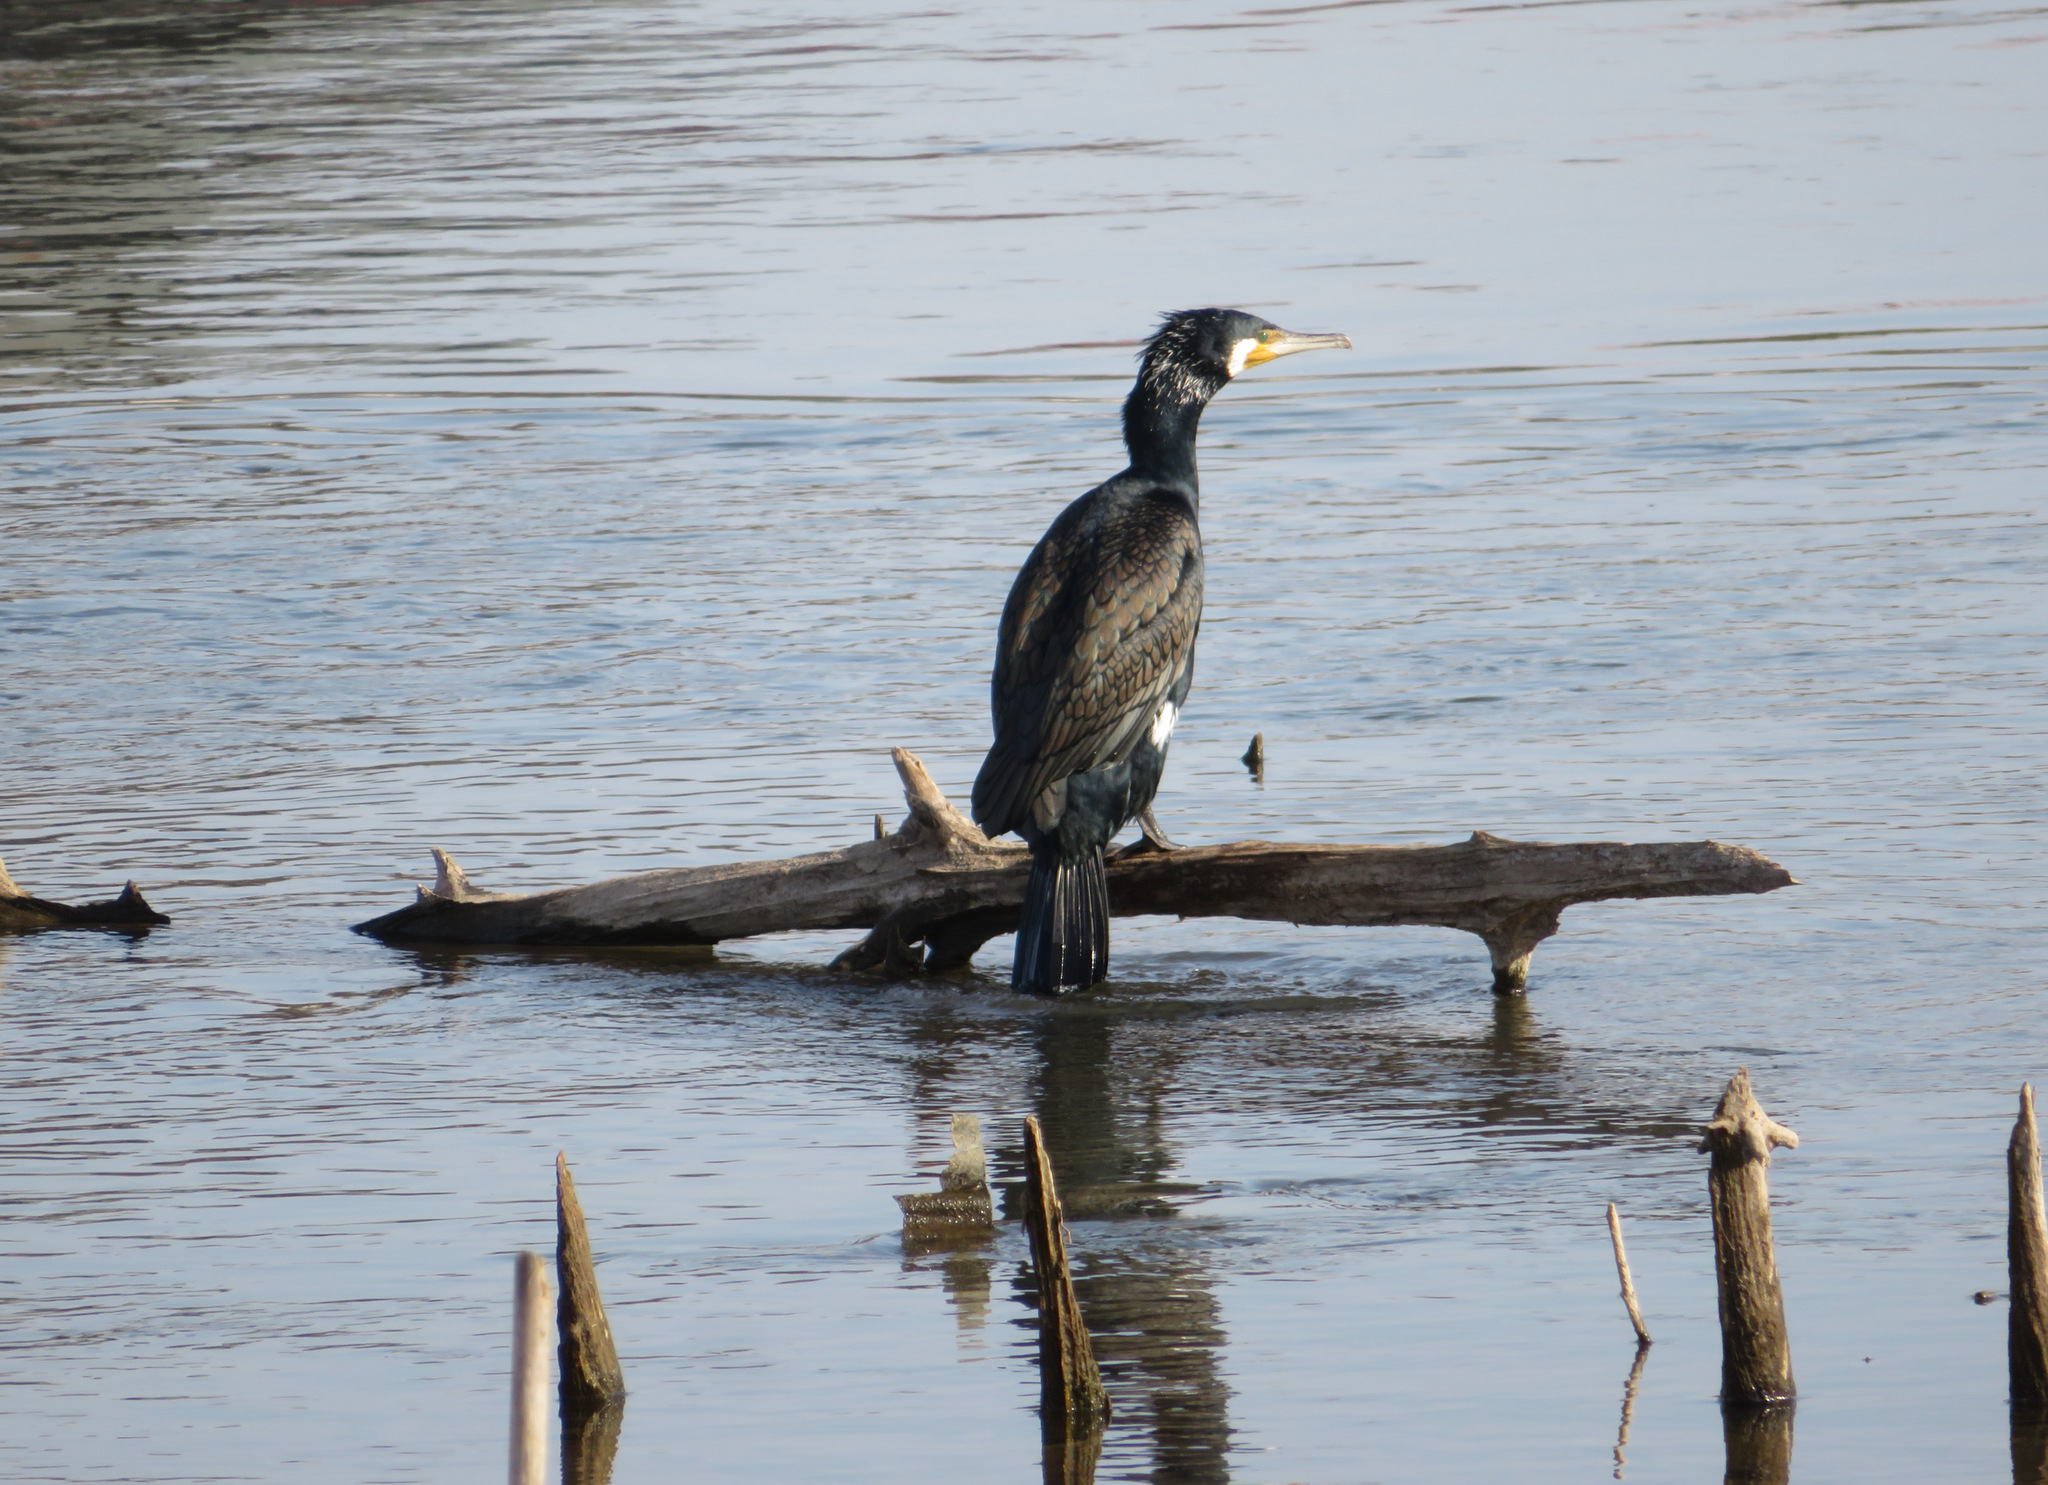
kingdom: Animalia
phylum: Chordata
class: Aves
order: Suliformes
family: Phalacrocoracidae
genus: Phalacrocorax
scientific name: Phalacrocorax carbo
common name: Great cormorant
